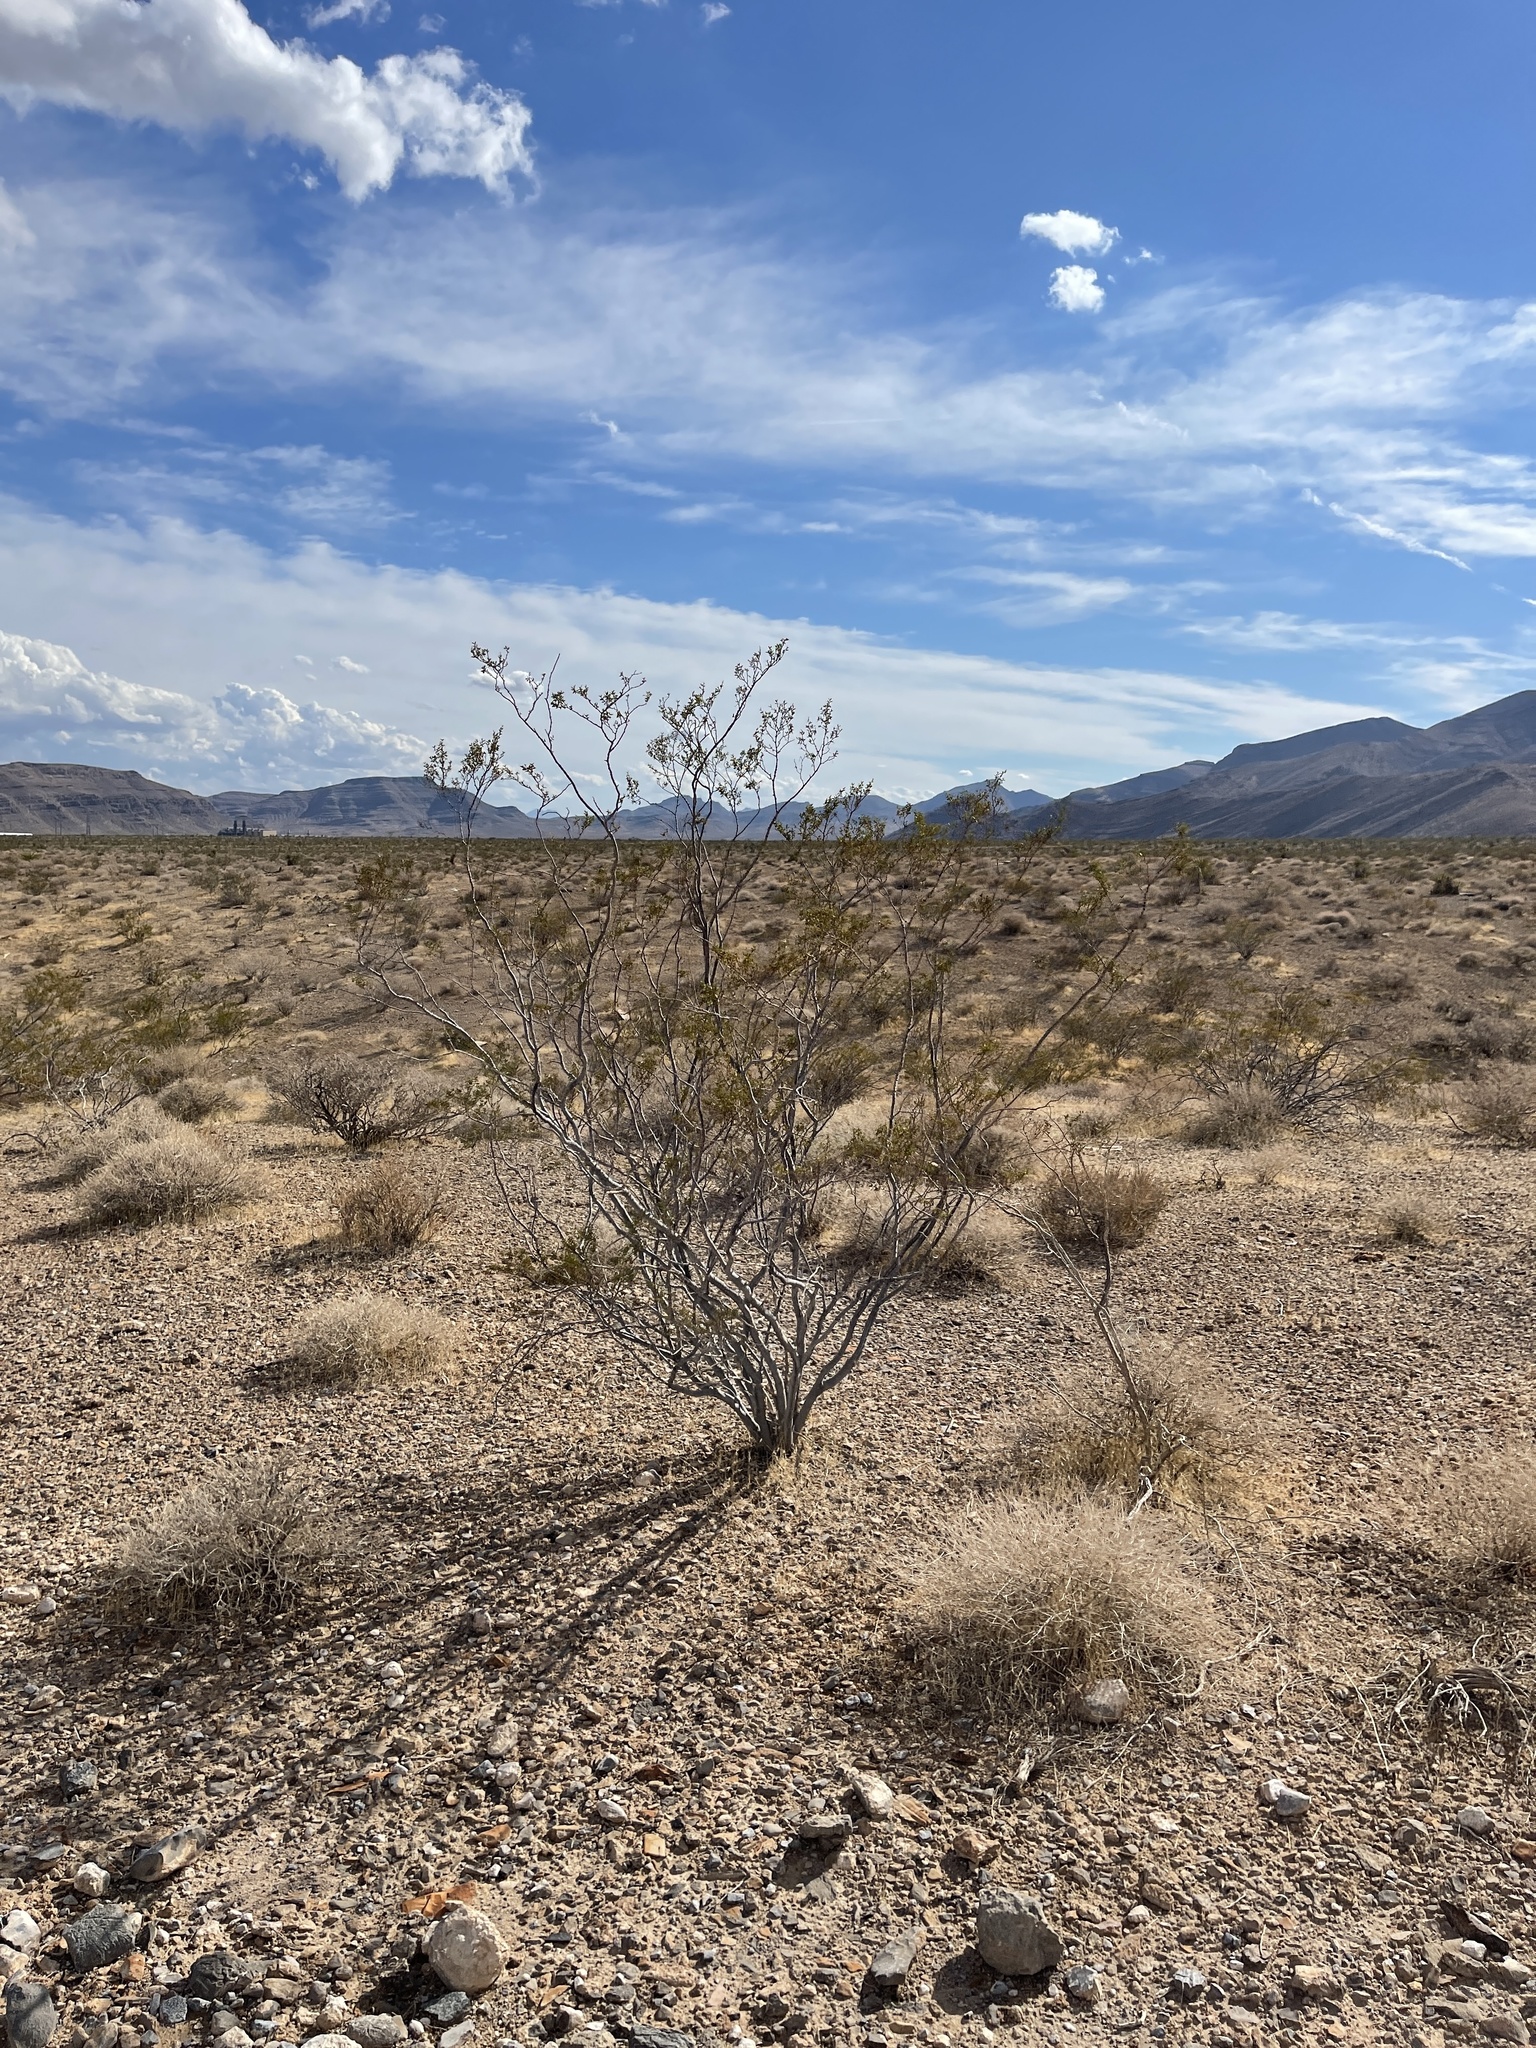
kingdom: Plantae
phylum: Tracheophyta
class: Magnoliopsida
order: Zygophyllales
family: Zygophyllaceae
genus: Larrea
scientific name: Larrea tridentata
